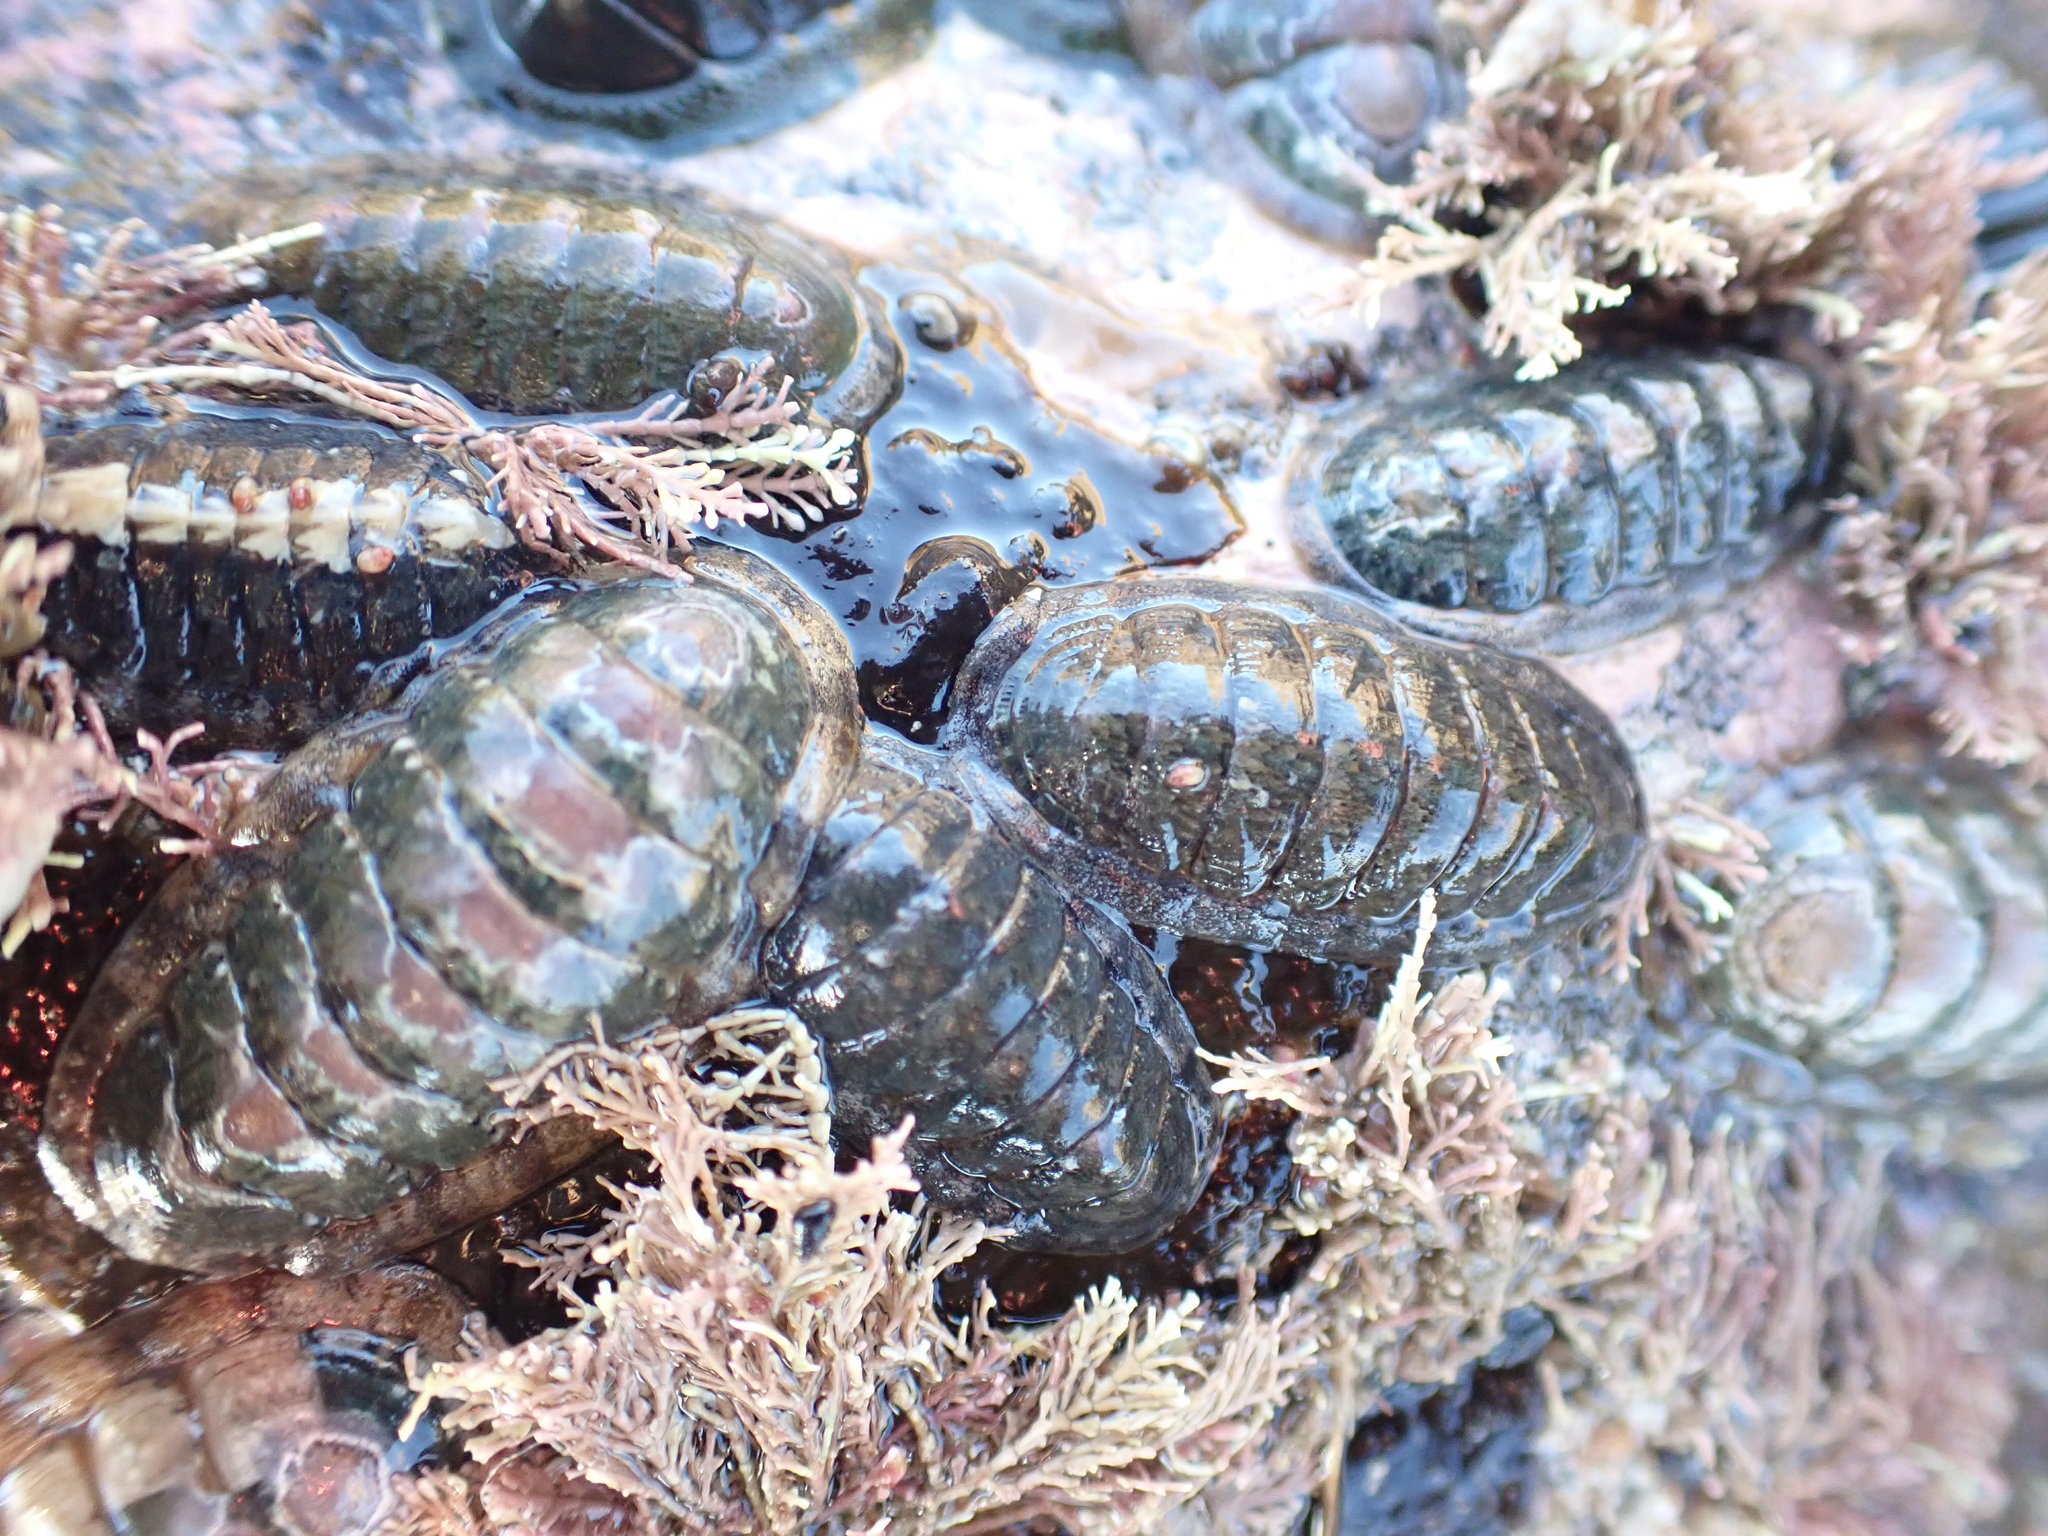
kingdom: Animalia
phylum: Mollusca
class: Polyplacophora
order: Chitonida
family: Ischnochitonidae
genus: Ischnochiton
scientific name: Ischnochiton maorianus
